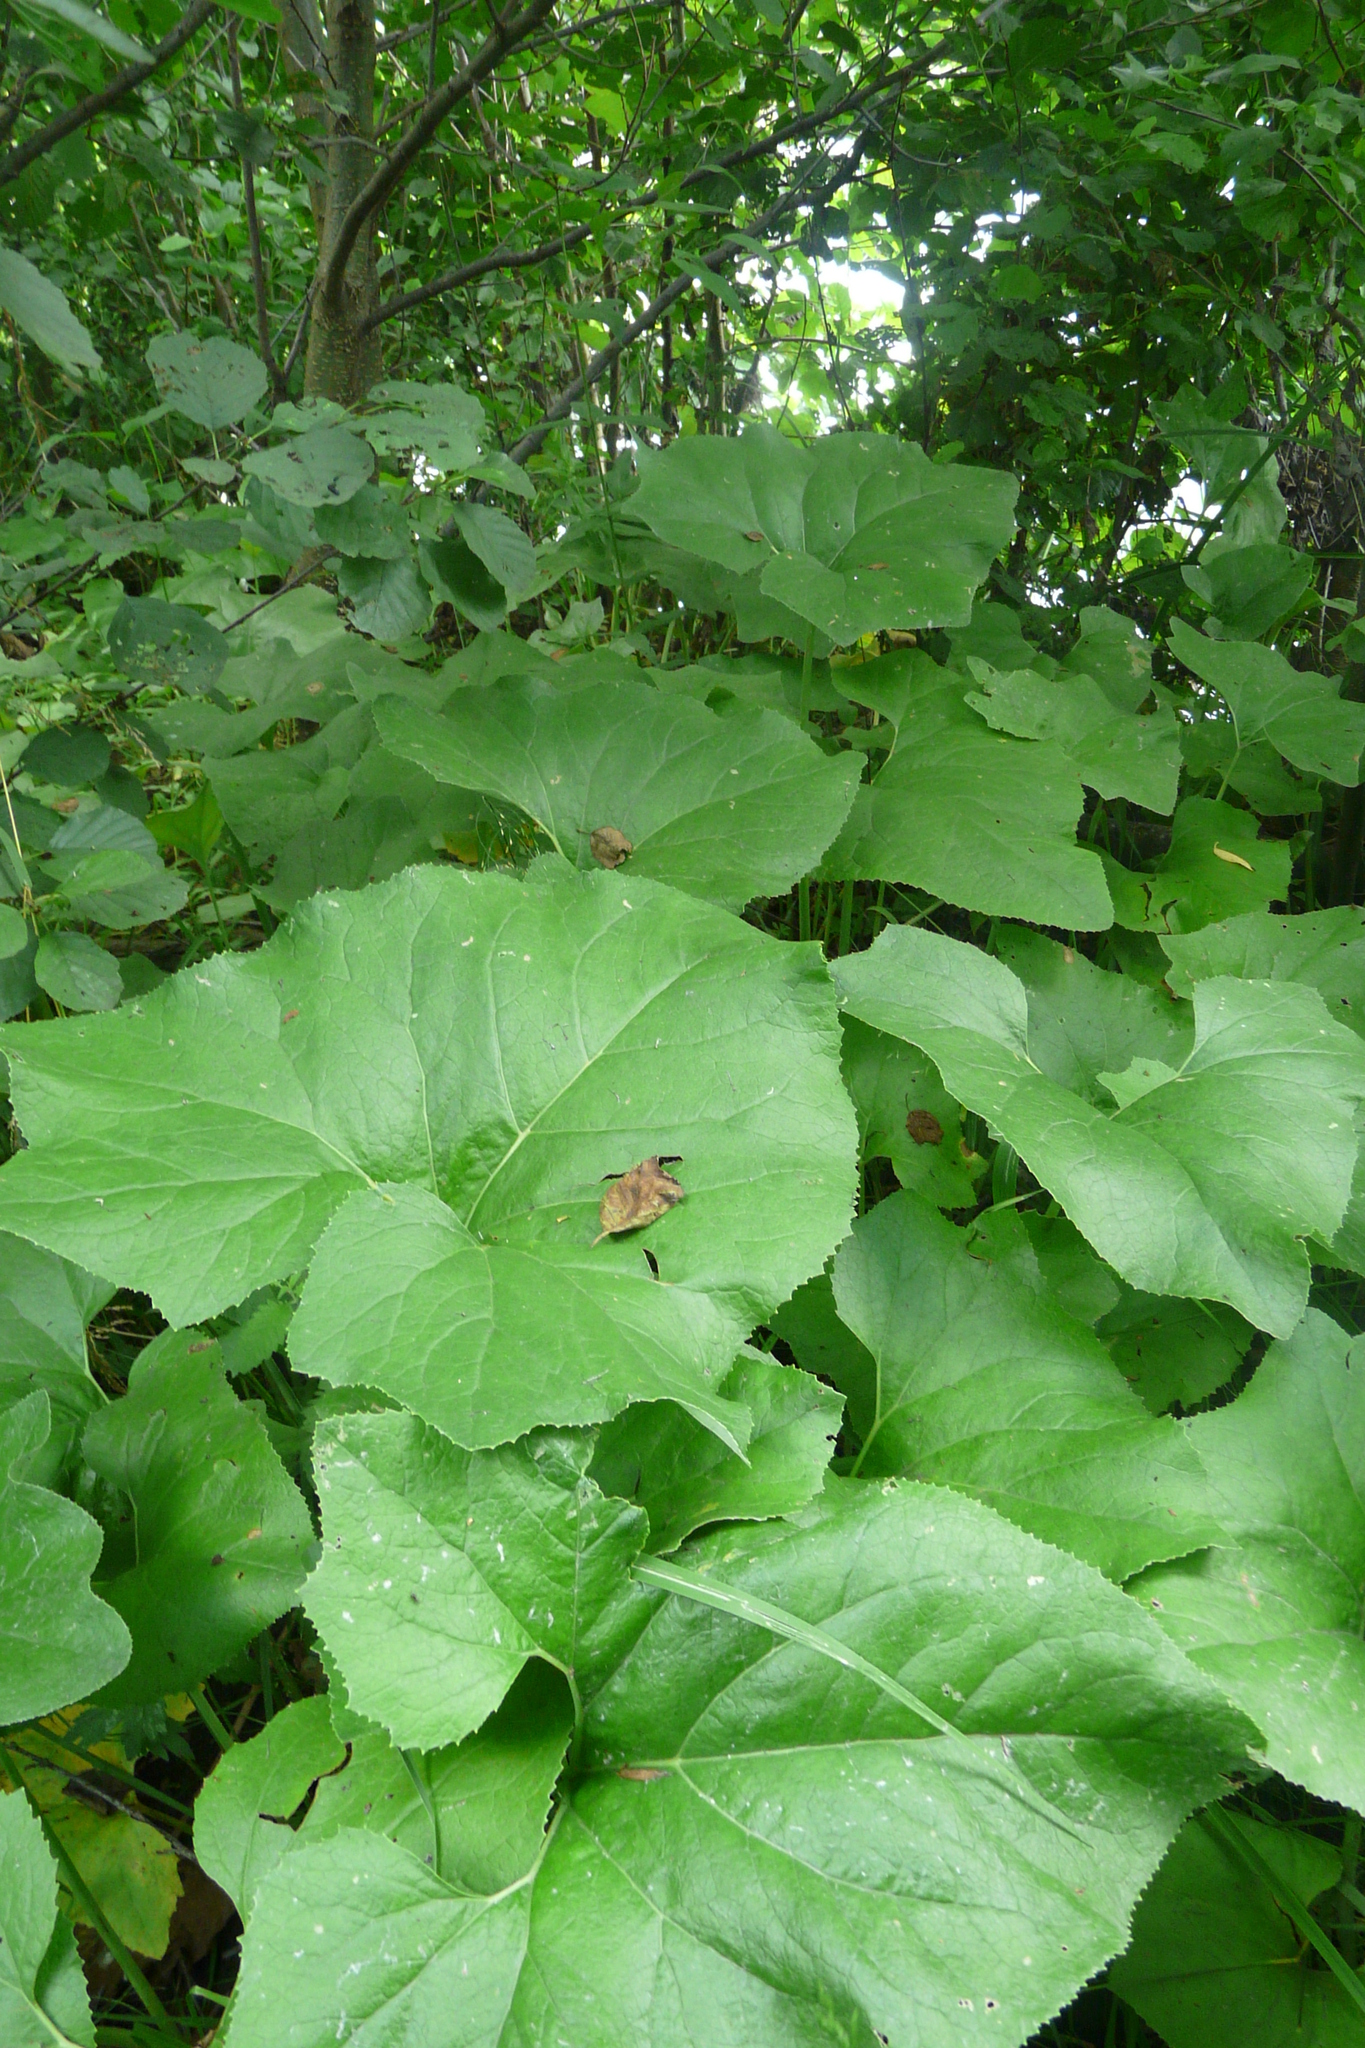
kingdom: Plantae
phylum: Tracheophyta
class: Magnoliopsida
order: Asterales
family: Asteraceae
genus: Petasites
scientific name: Petasites spurius
